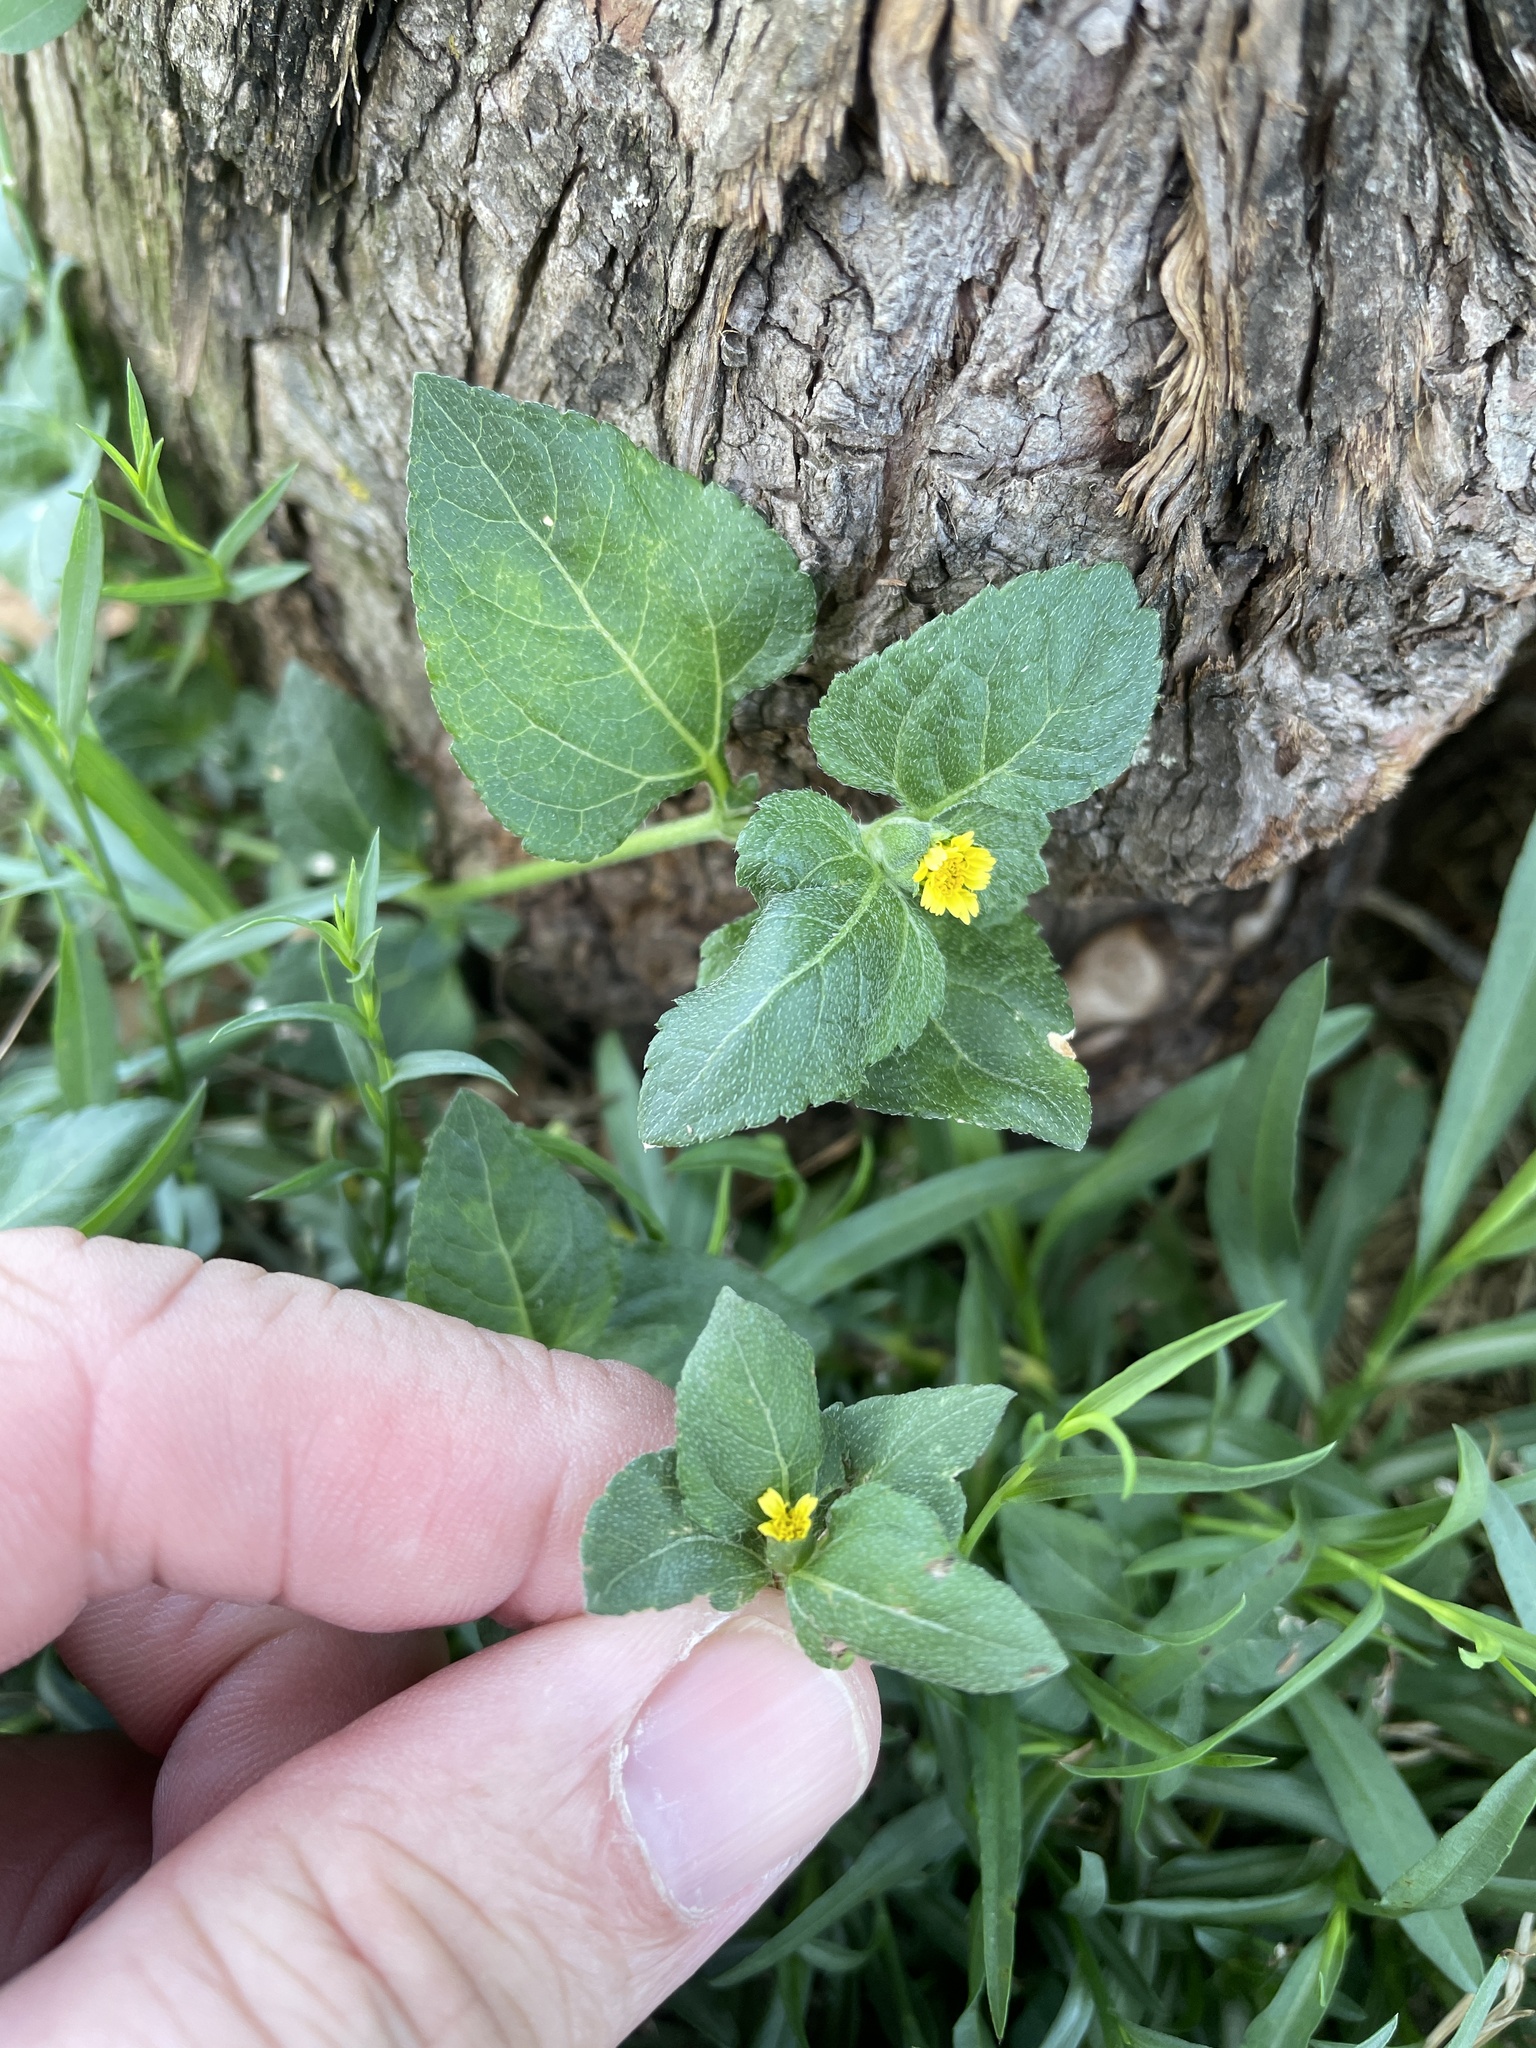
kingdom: Plantae
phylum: Tracheophyta
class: Magnoliopsida
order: Asterales
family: Asteraceae
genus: Calyptocarpus
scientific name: Calyptocarpus vialis
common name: Straggler daisy
